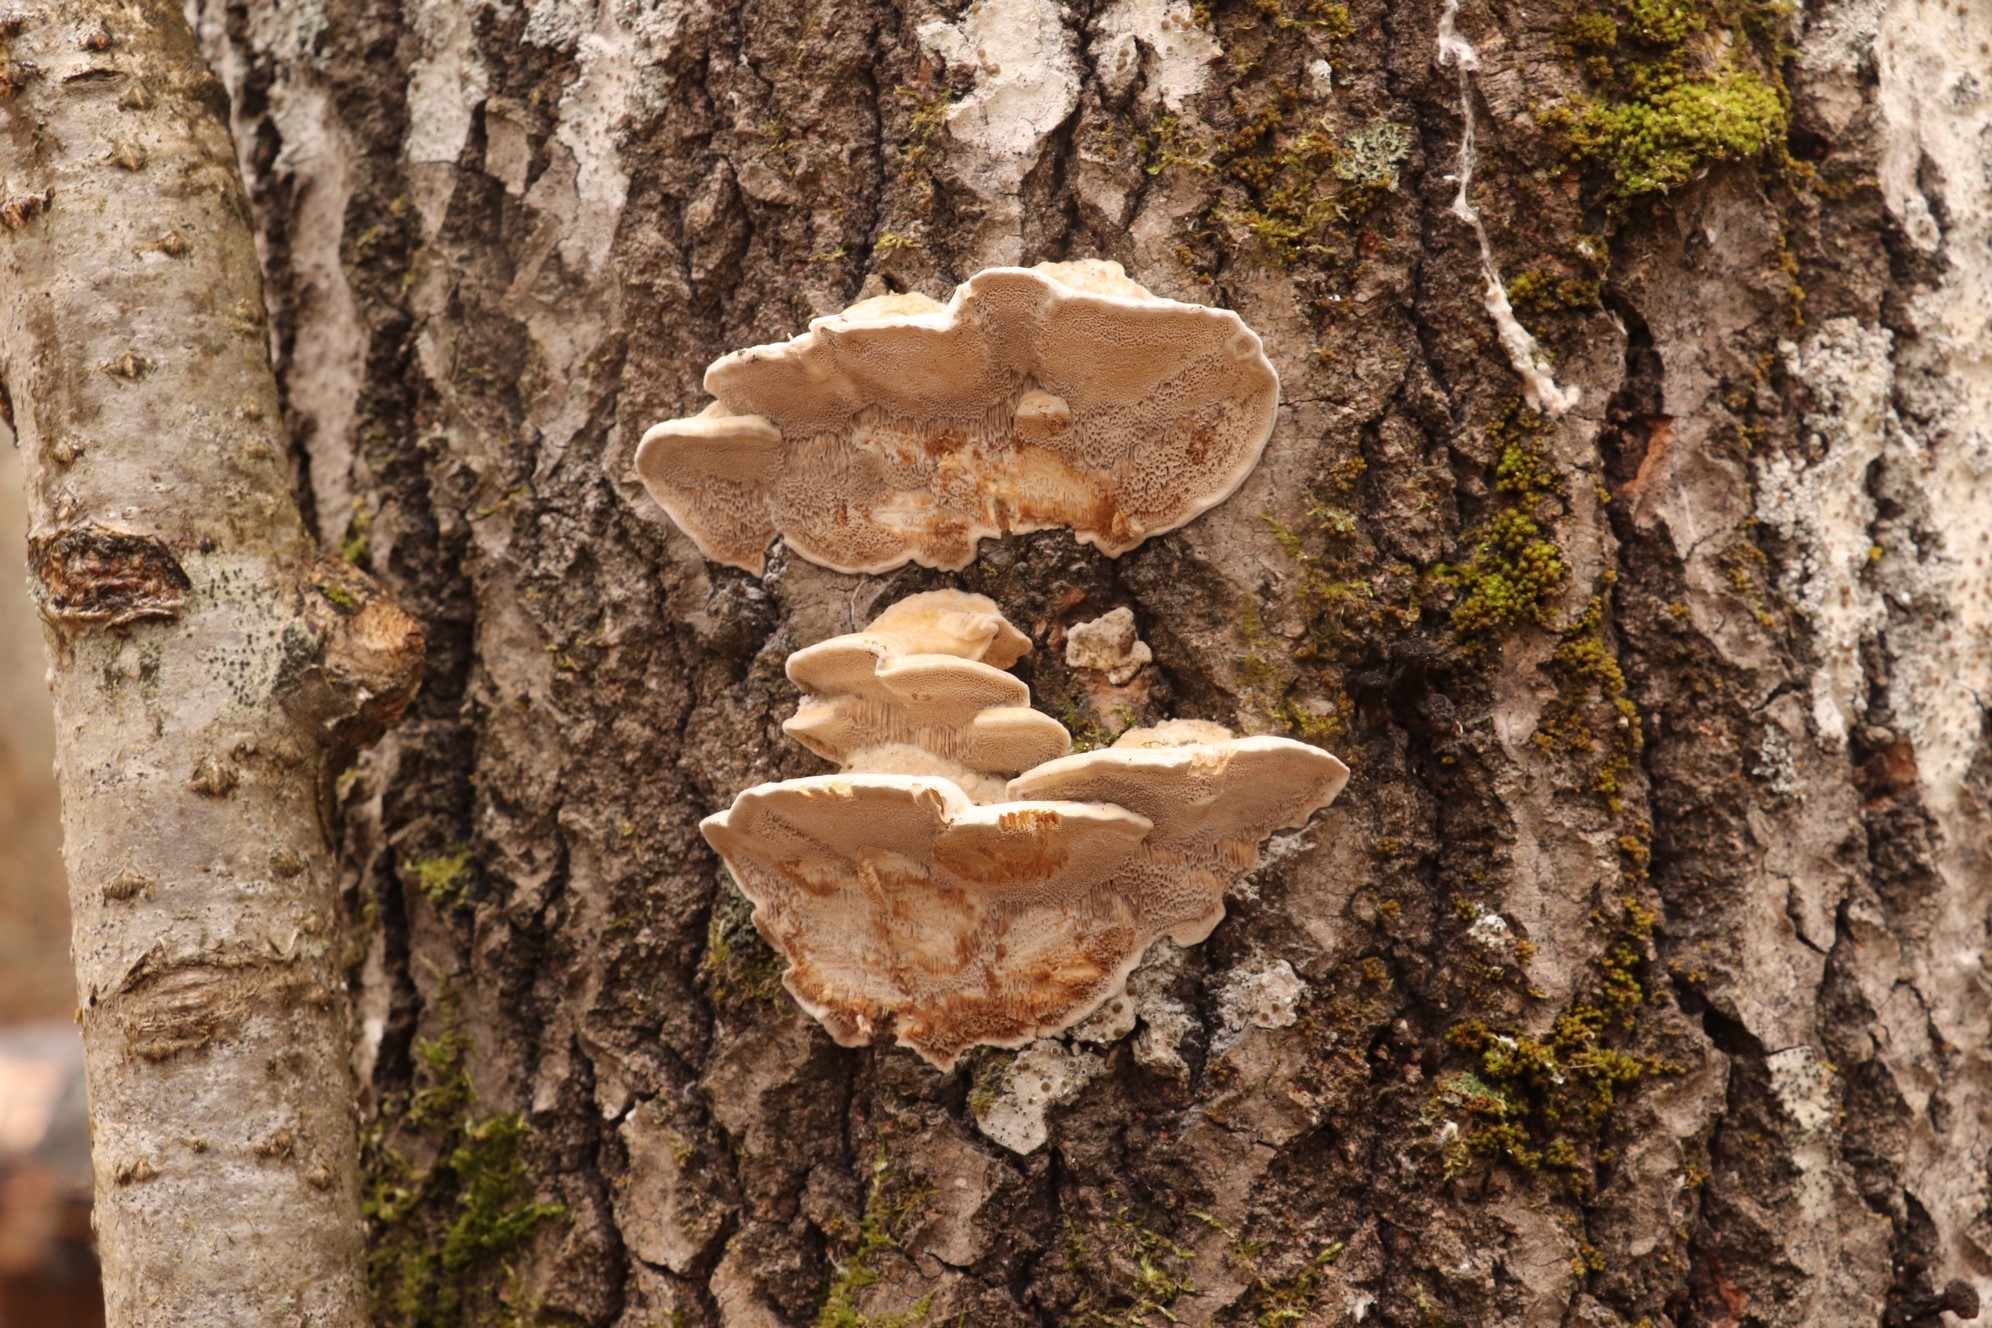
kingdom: Fungi
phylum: Basidiomycota
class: Agaricomycetes
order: Polyporales
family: Phanerochaetaceae
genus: Bjerkandera
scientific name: Bjerkandera fumosa
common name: Big smoky bracket
